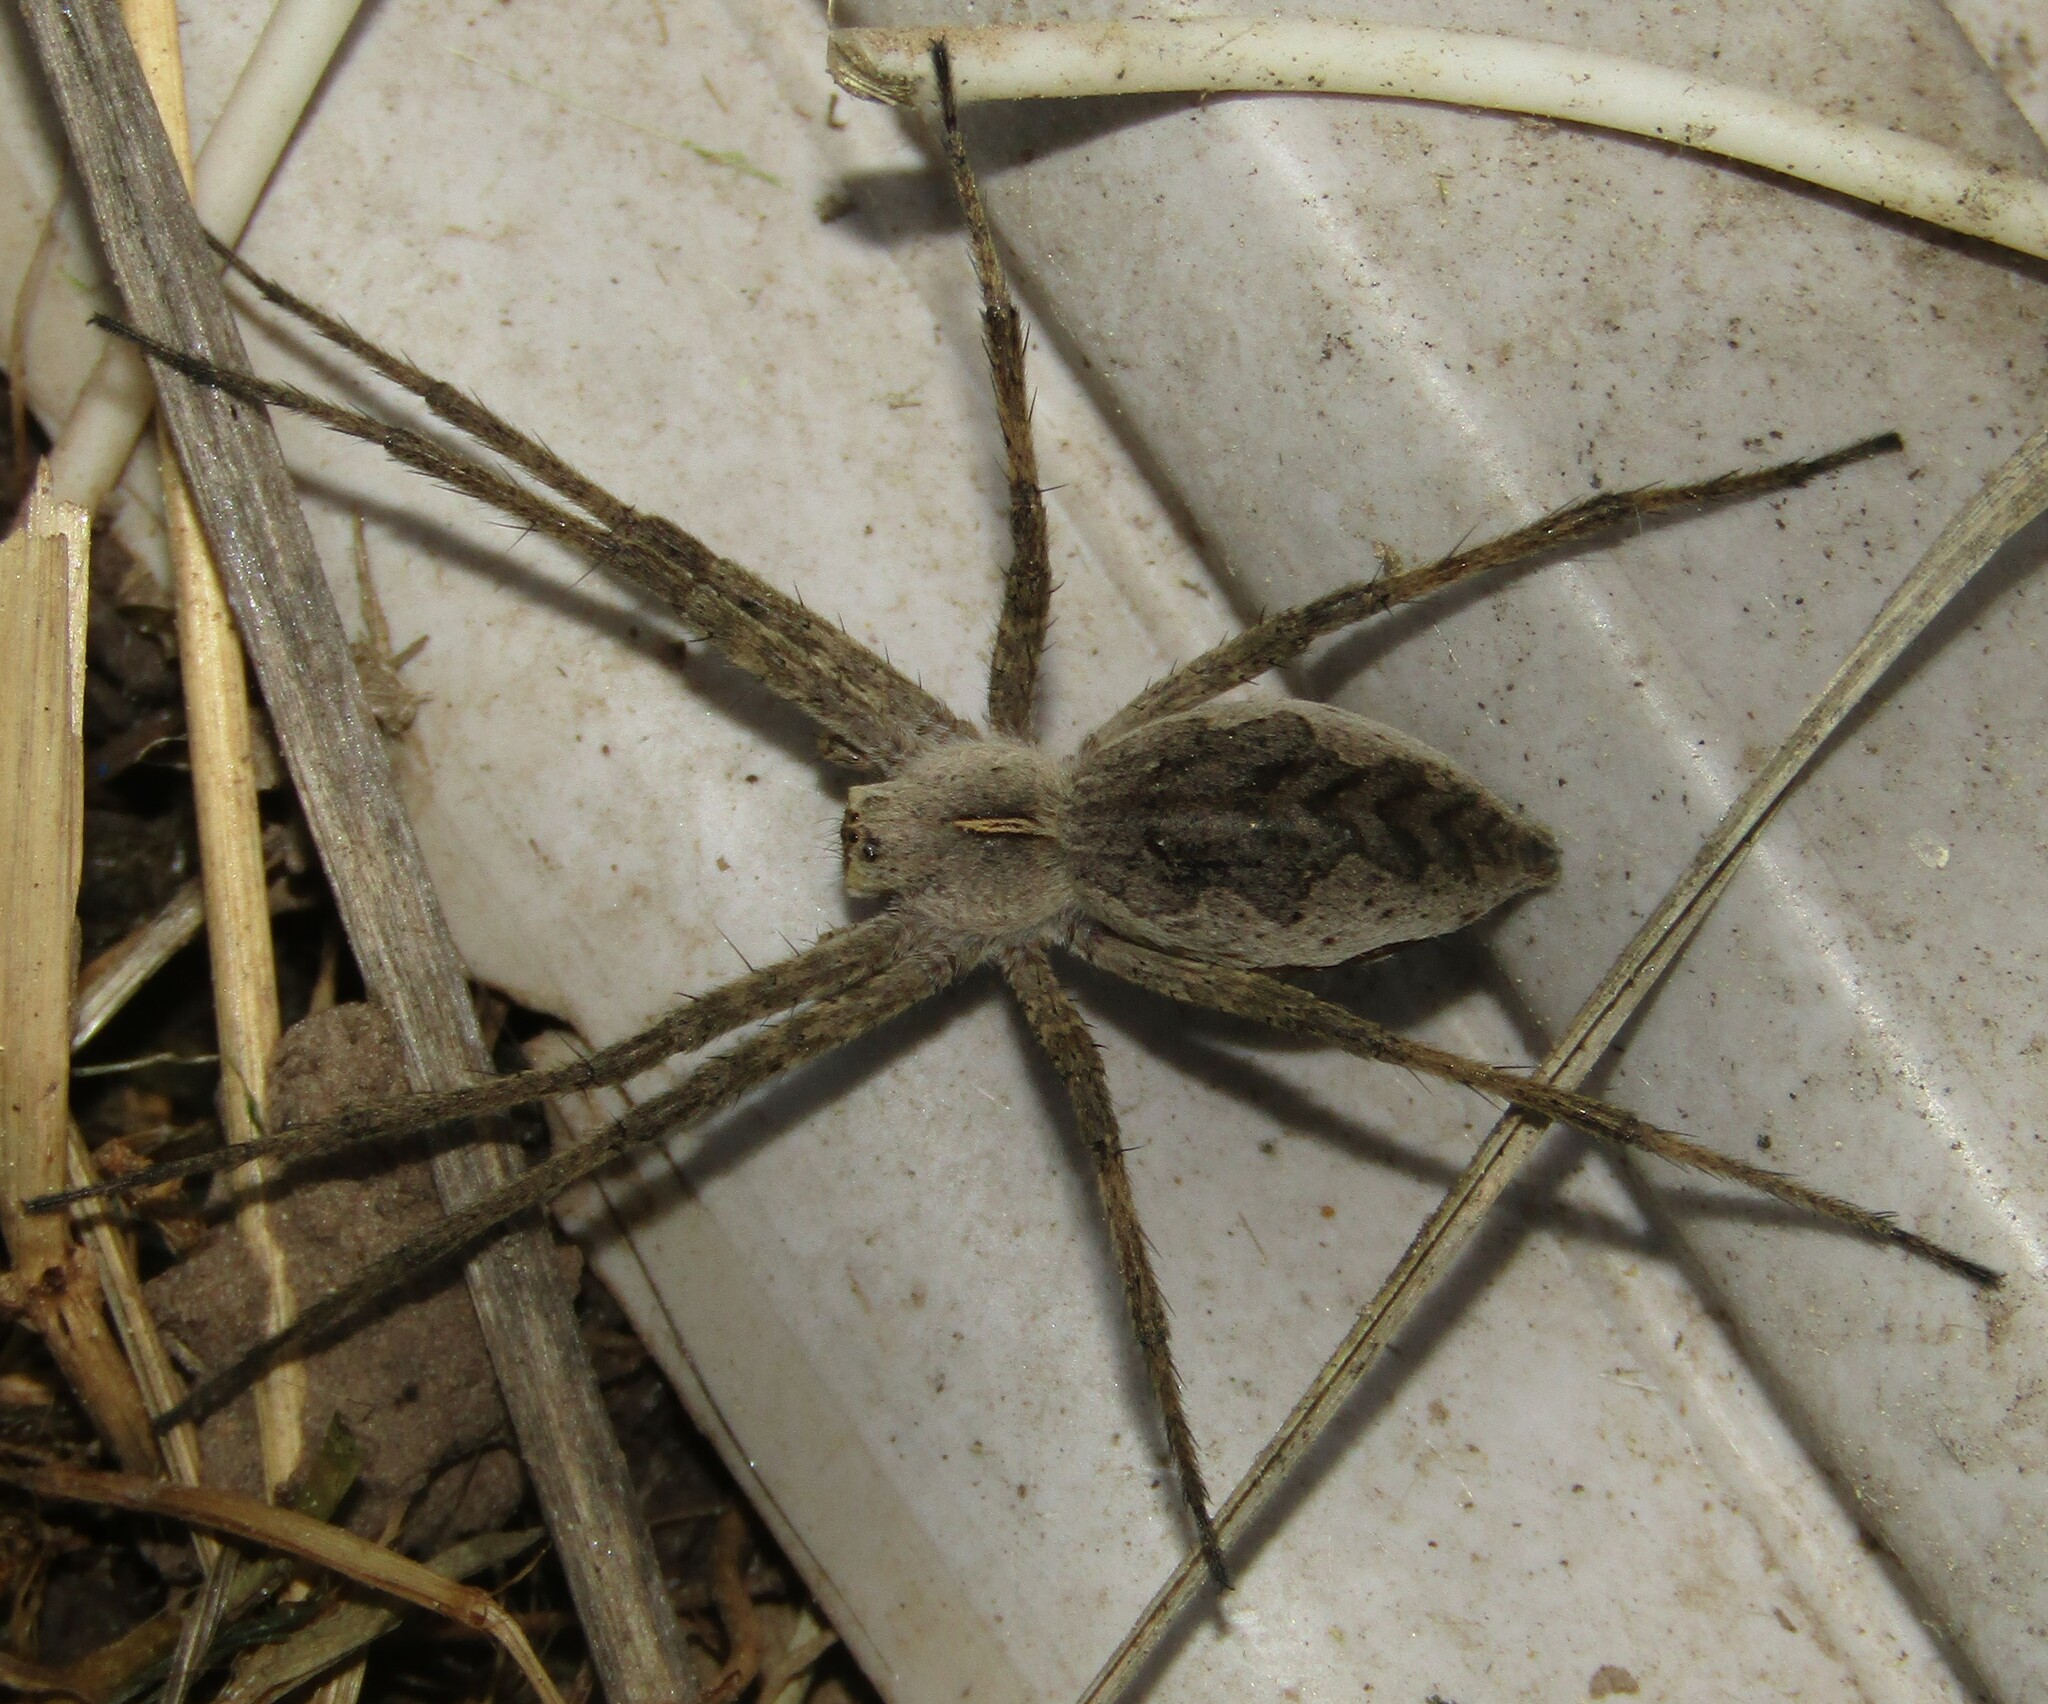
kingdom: Animalia
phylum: Arthropoda
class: Arachnida
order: Araneae
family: Pisauridae
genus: Pisaura
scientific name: Pisaura mirabilis
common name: Tent spider
